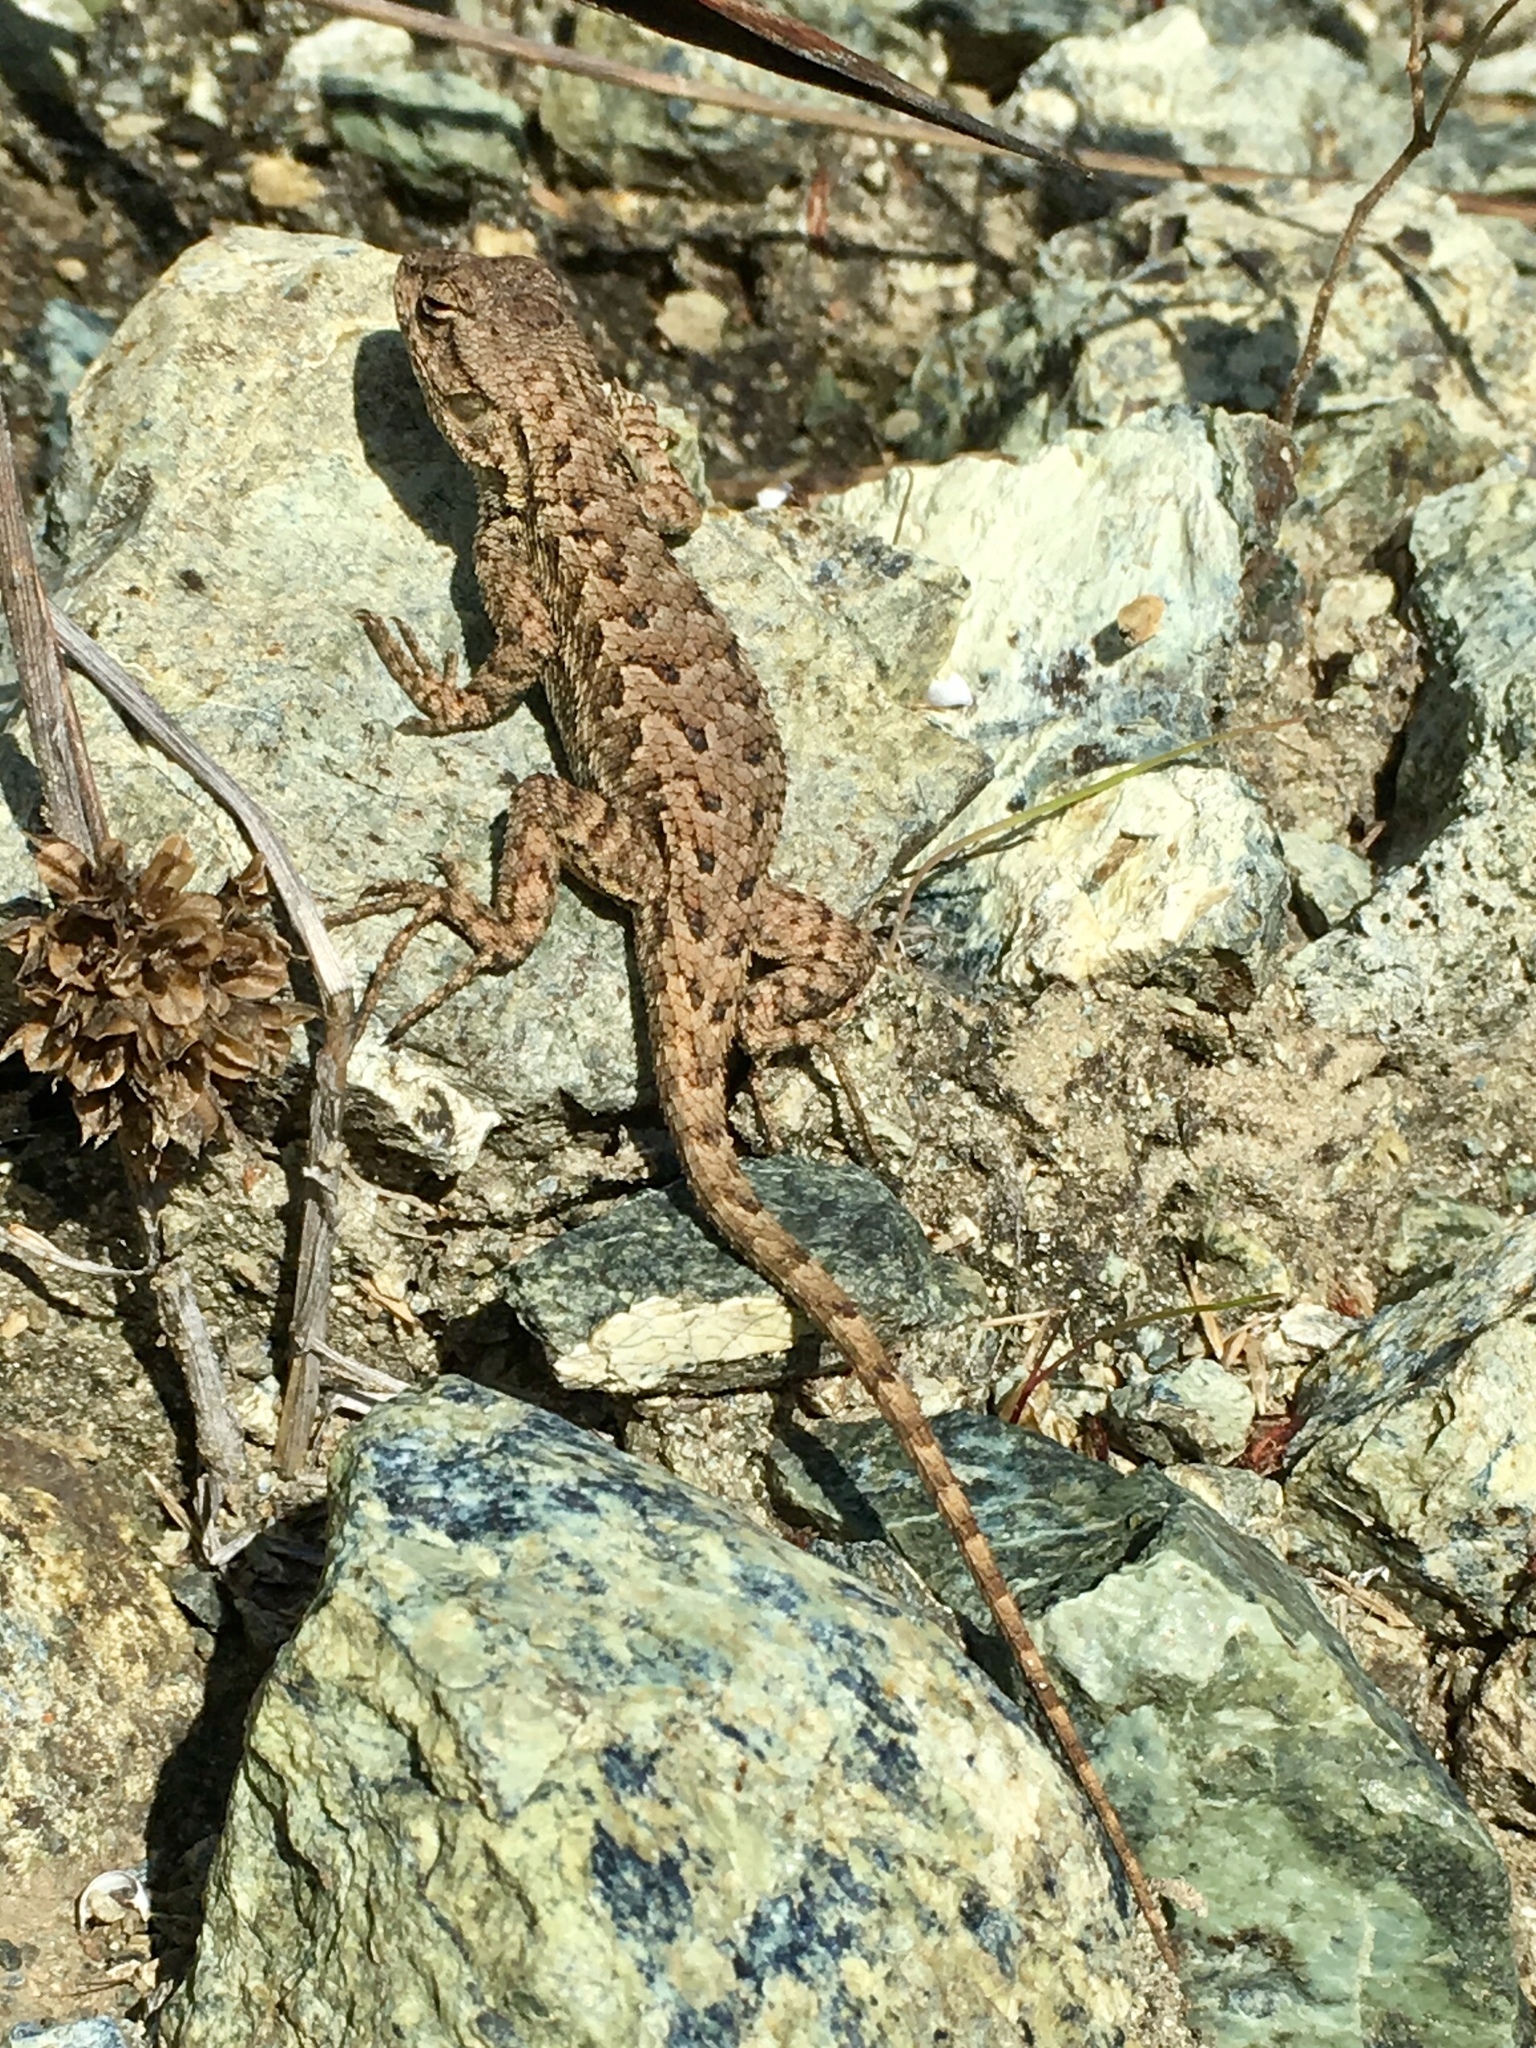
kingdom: Animalia
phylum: Chordata
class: Squamata
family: Phrynosomatidae
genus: Sceloporus
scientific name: Sceloporus occidentalis
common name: Western fence lizard
